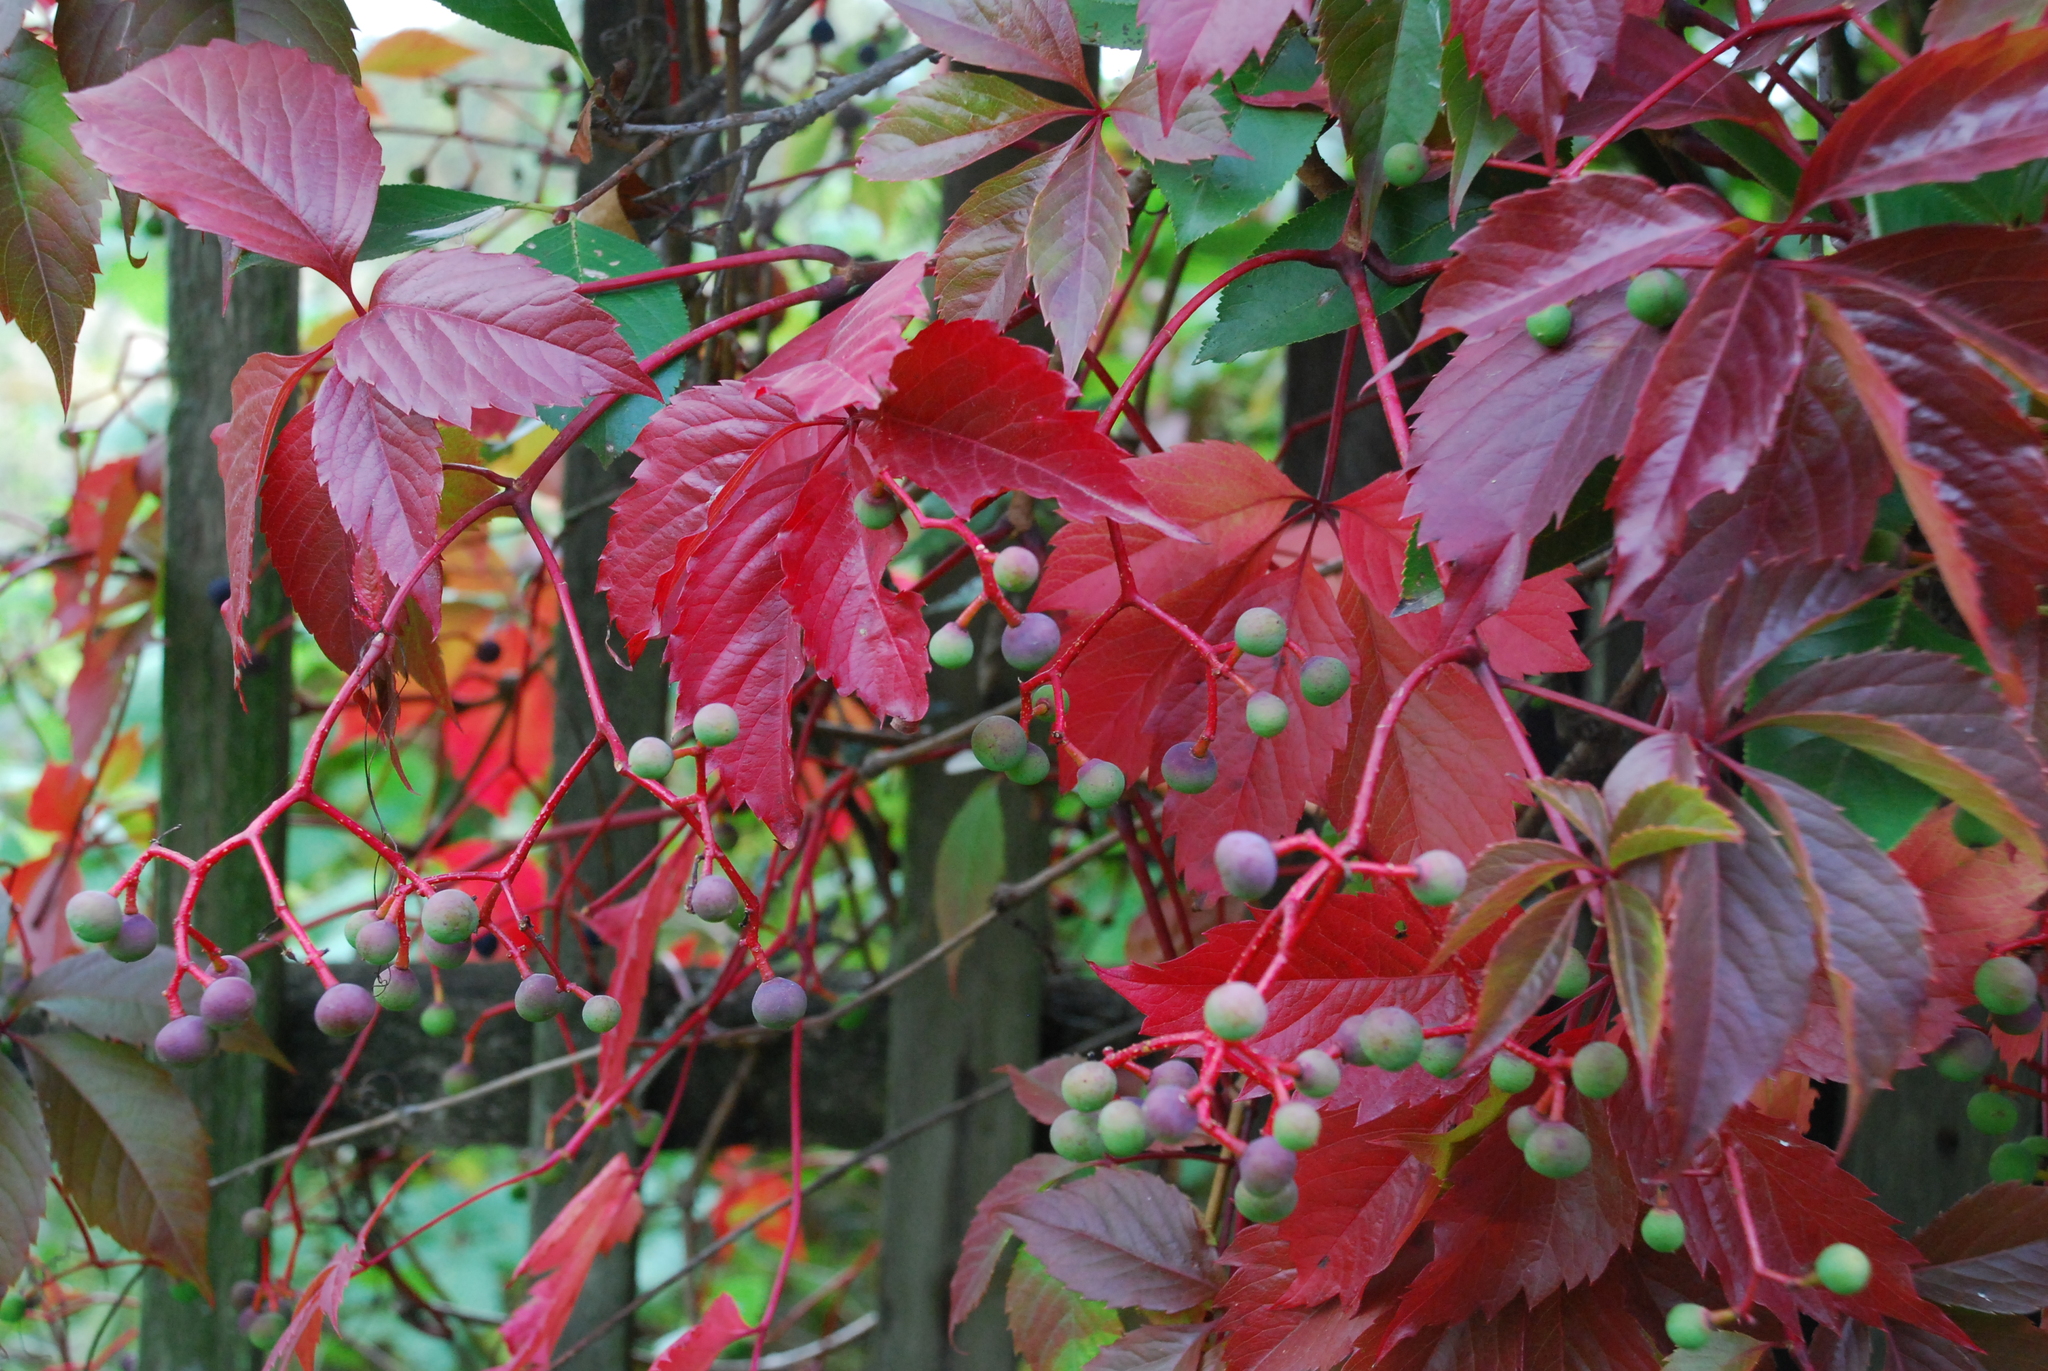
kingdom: Plantae
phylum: Tracheophyta
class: Magnoliopsida
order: Vitales
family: Vitaceae
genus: Parthenocissus
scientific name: Parthenocissus inserta
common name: False virginia-creeper
